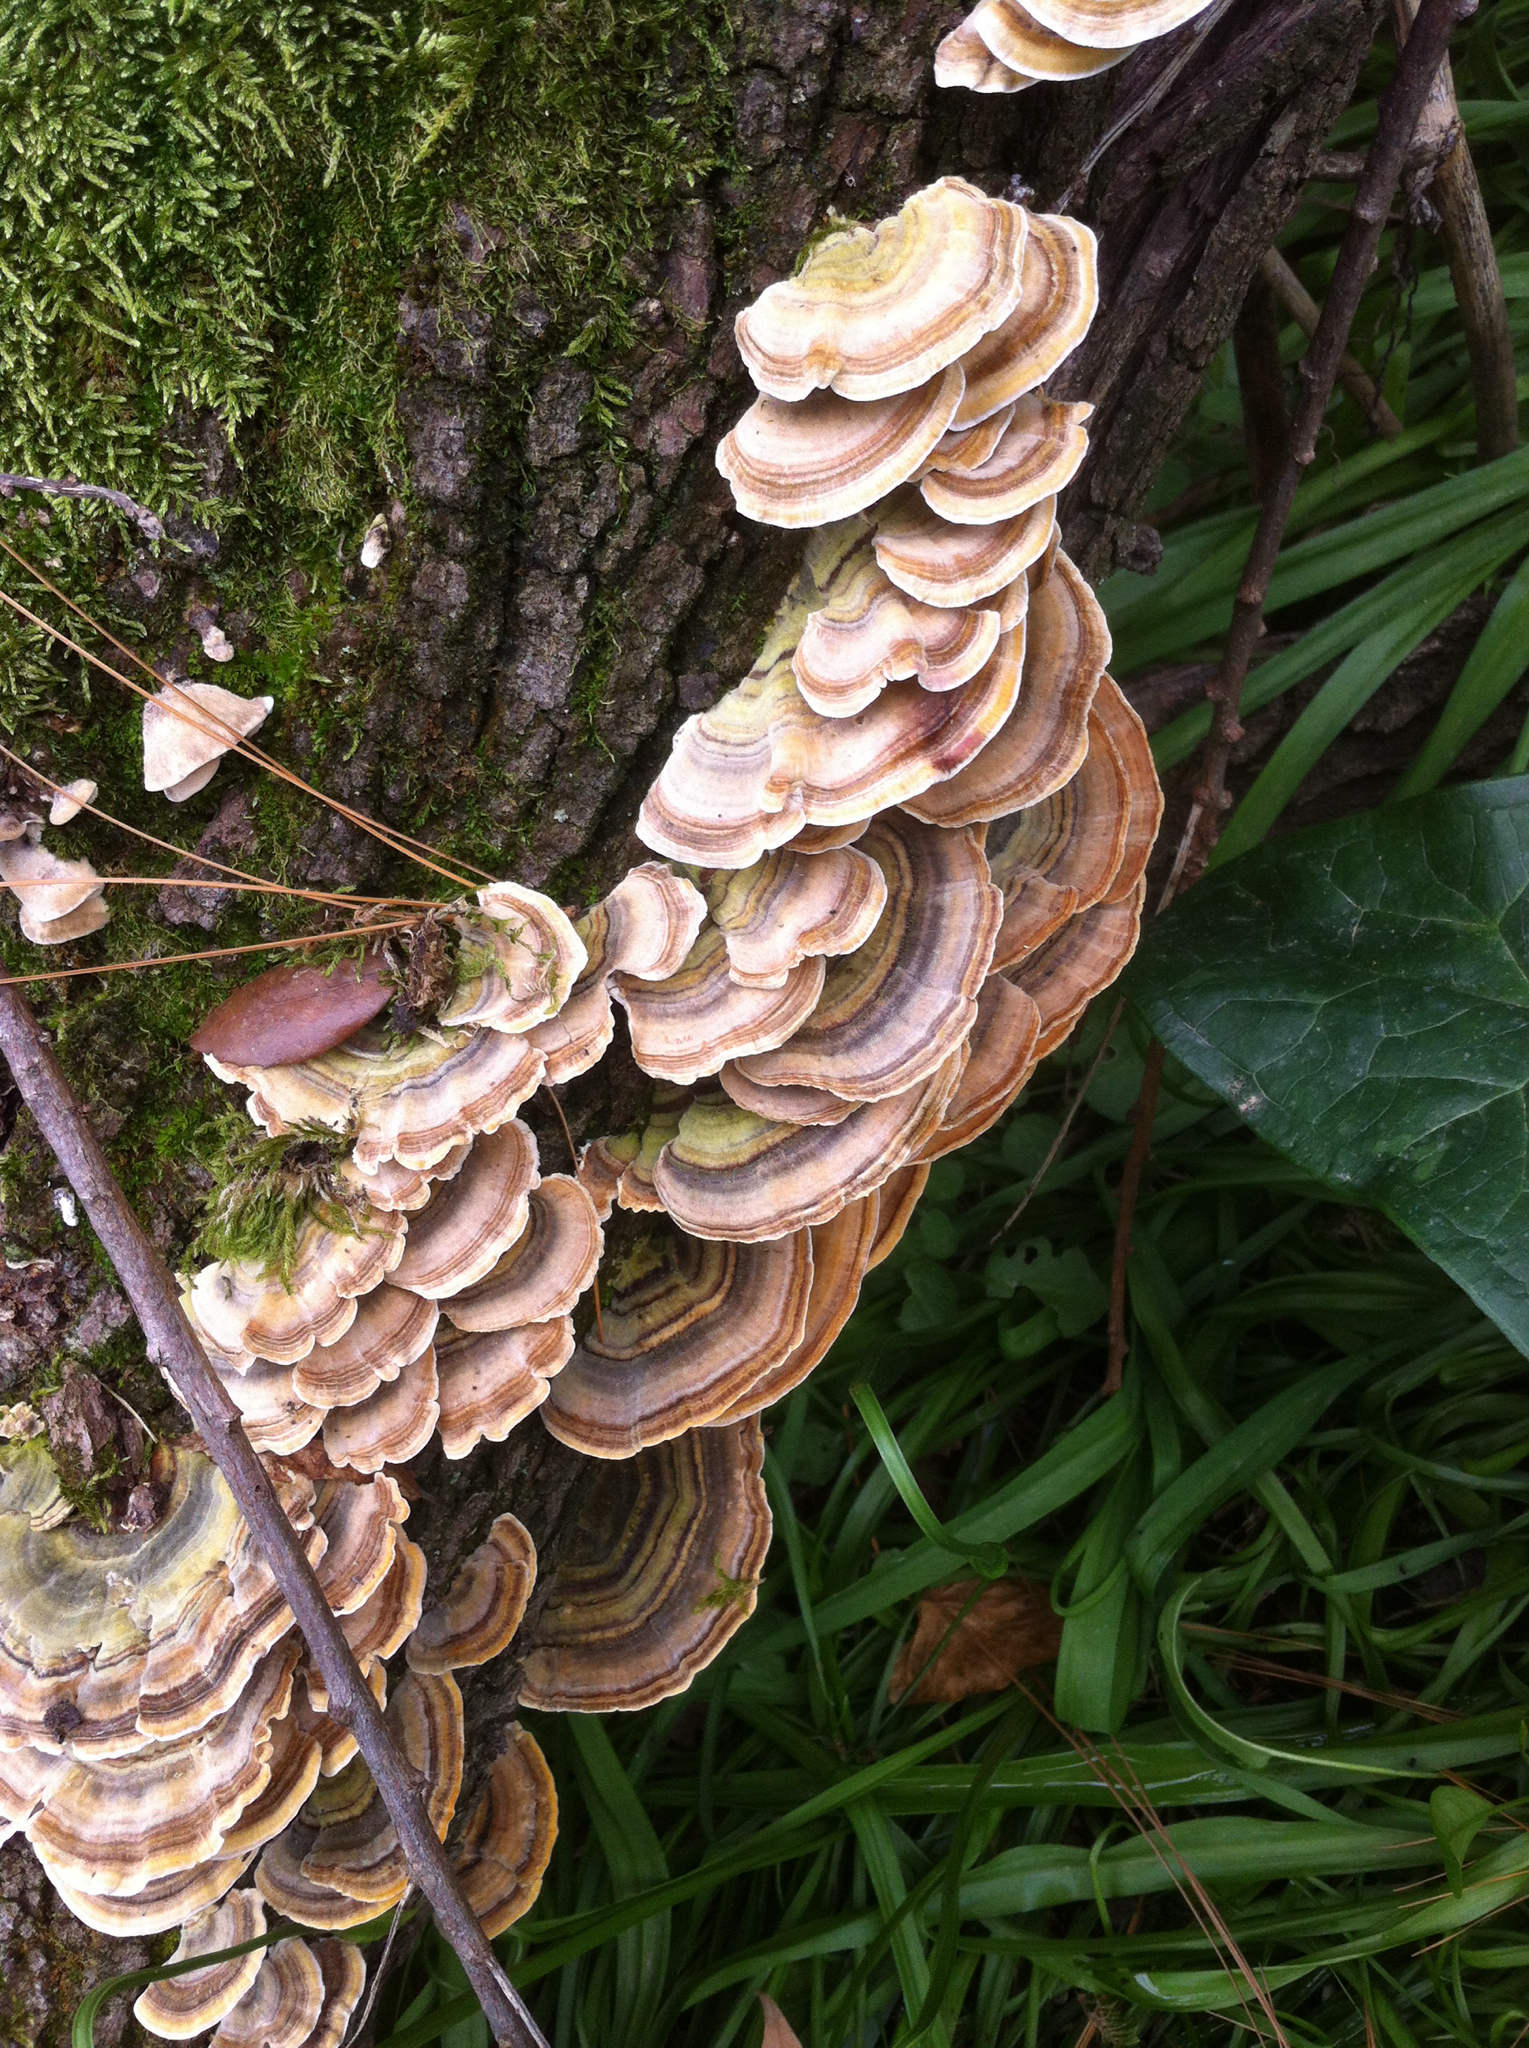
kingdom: Fungi
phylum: Basidiomycota
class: Agaricomycetes
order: Polyporales
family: Polyporaceae
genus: Trametes
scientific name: Trametes versicolor
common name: Turkeytail
